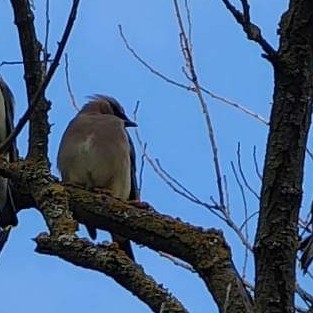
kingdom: Animalia
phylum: Chordata
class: Aves
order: Passeriformes
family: Bombycillidae
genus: Bombycilla
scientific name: Bombycilla cedrorum
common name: Cedar waxwing
